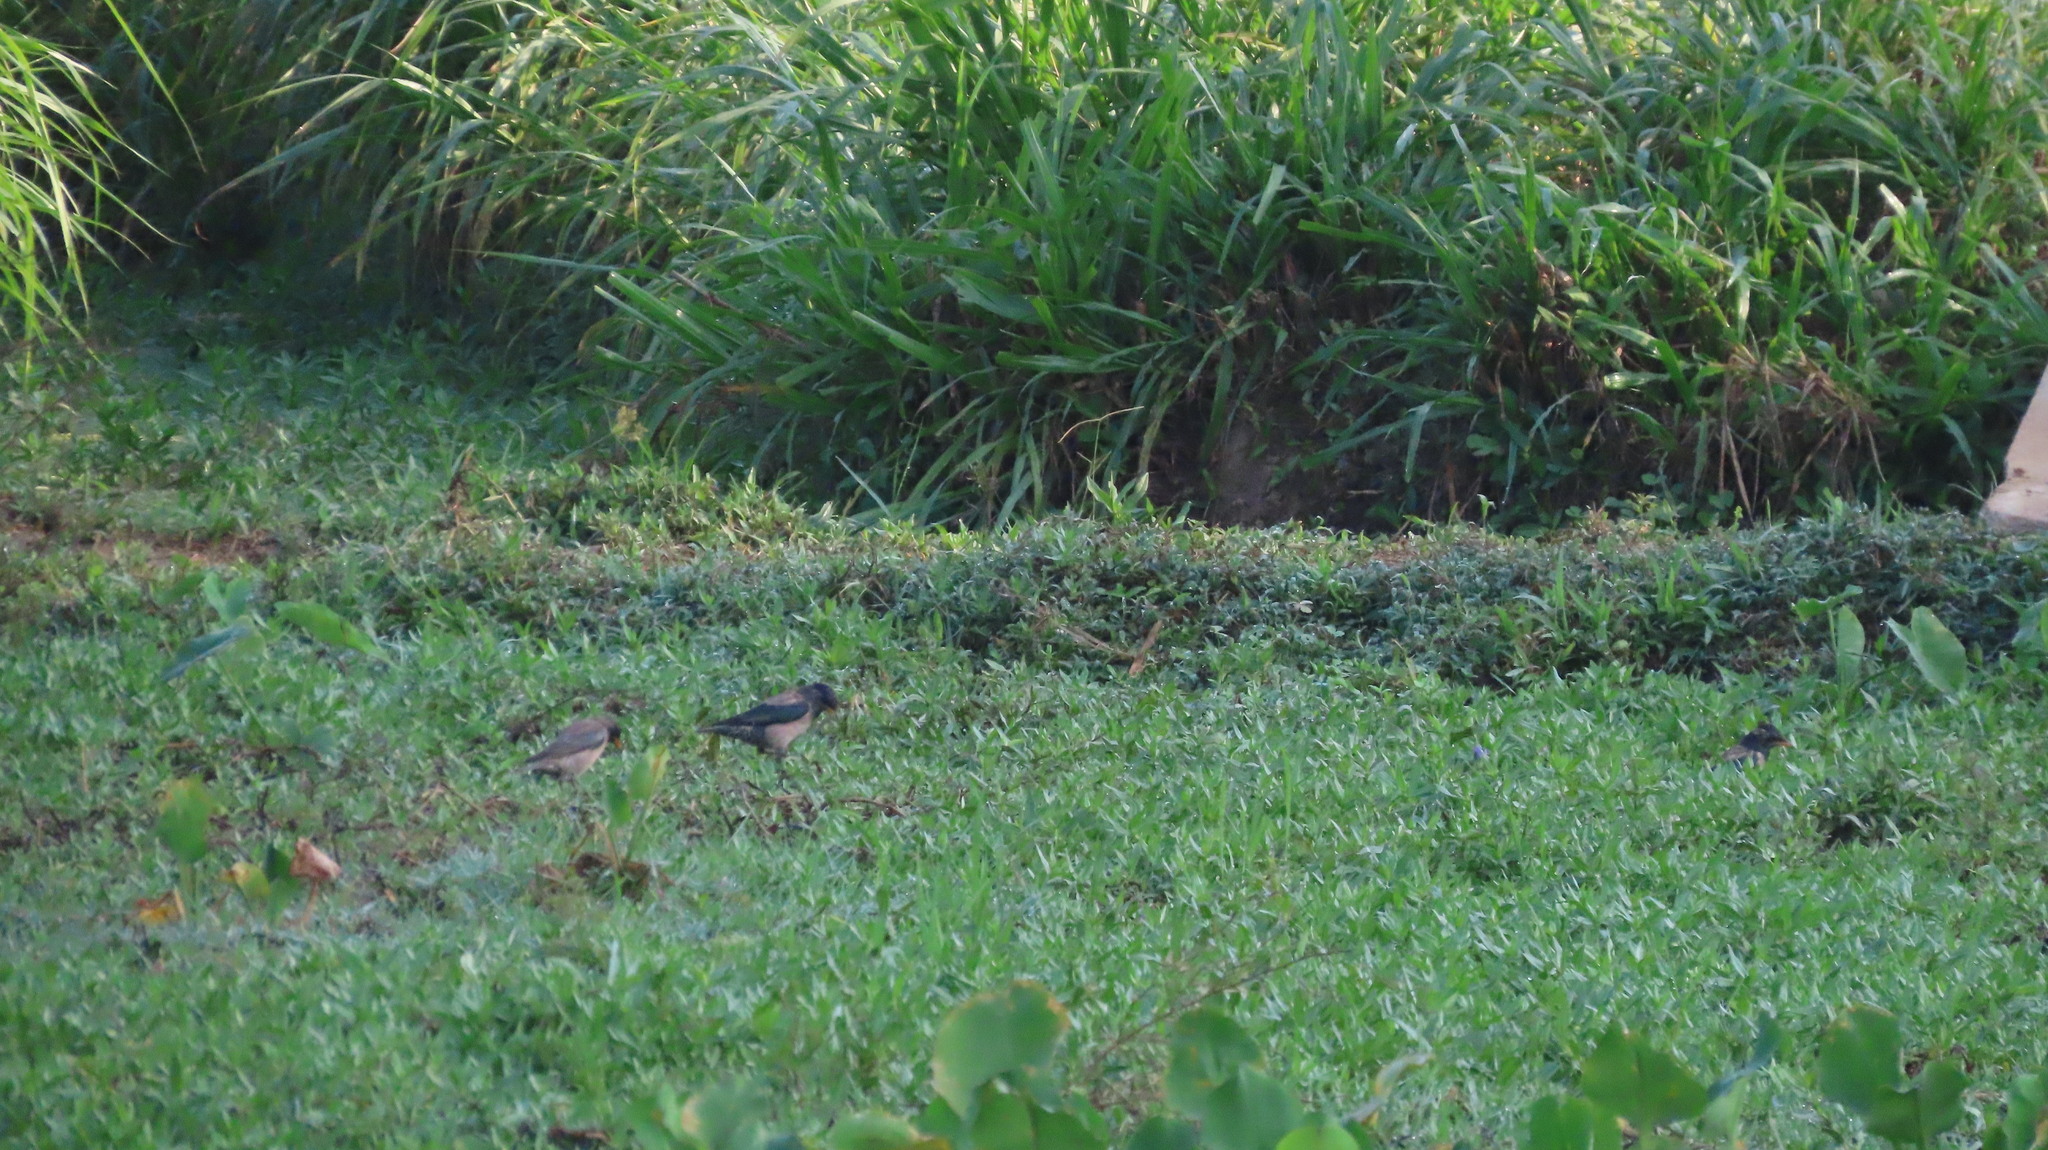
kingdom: Animalia
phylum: Chordata
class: Aves
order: Passeriformes
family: Sturnidae
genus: Pastor
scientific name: Pastor roseus
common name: Rosy starling
